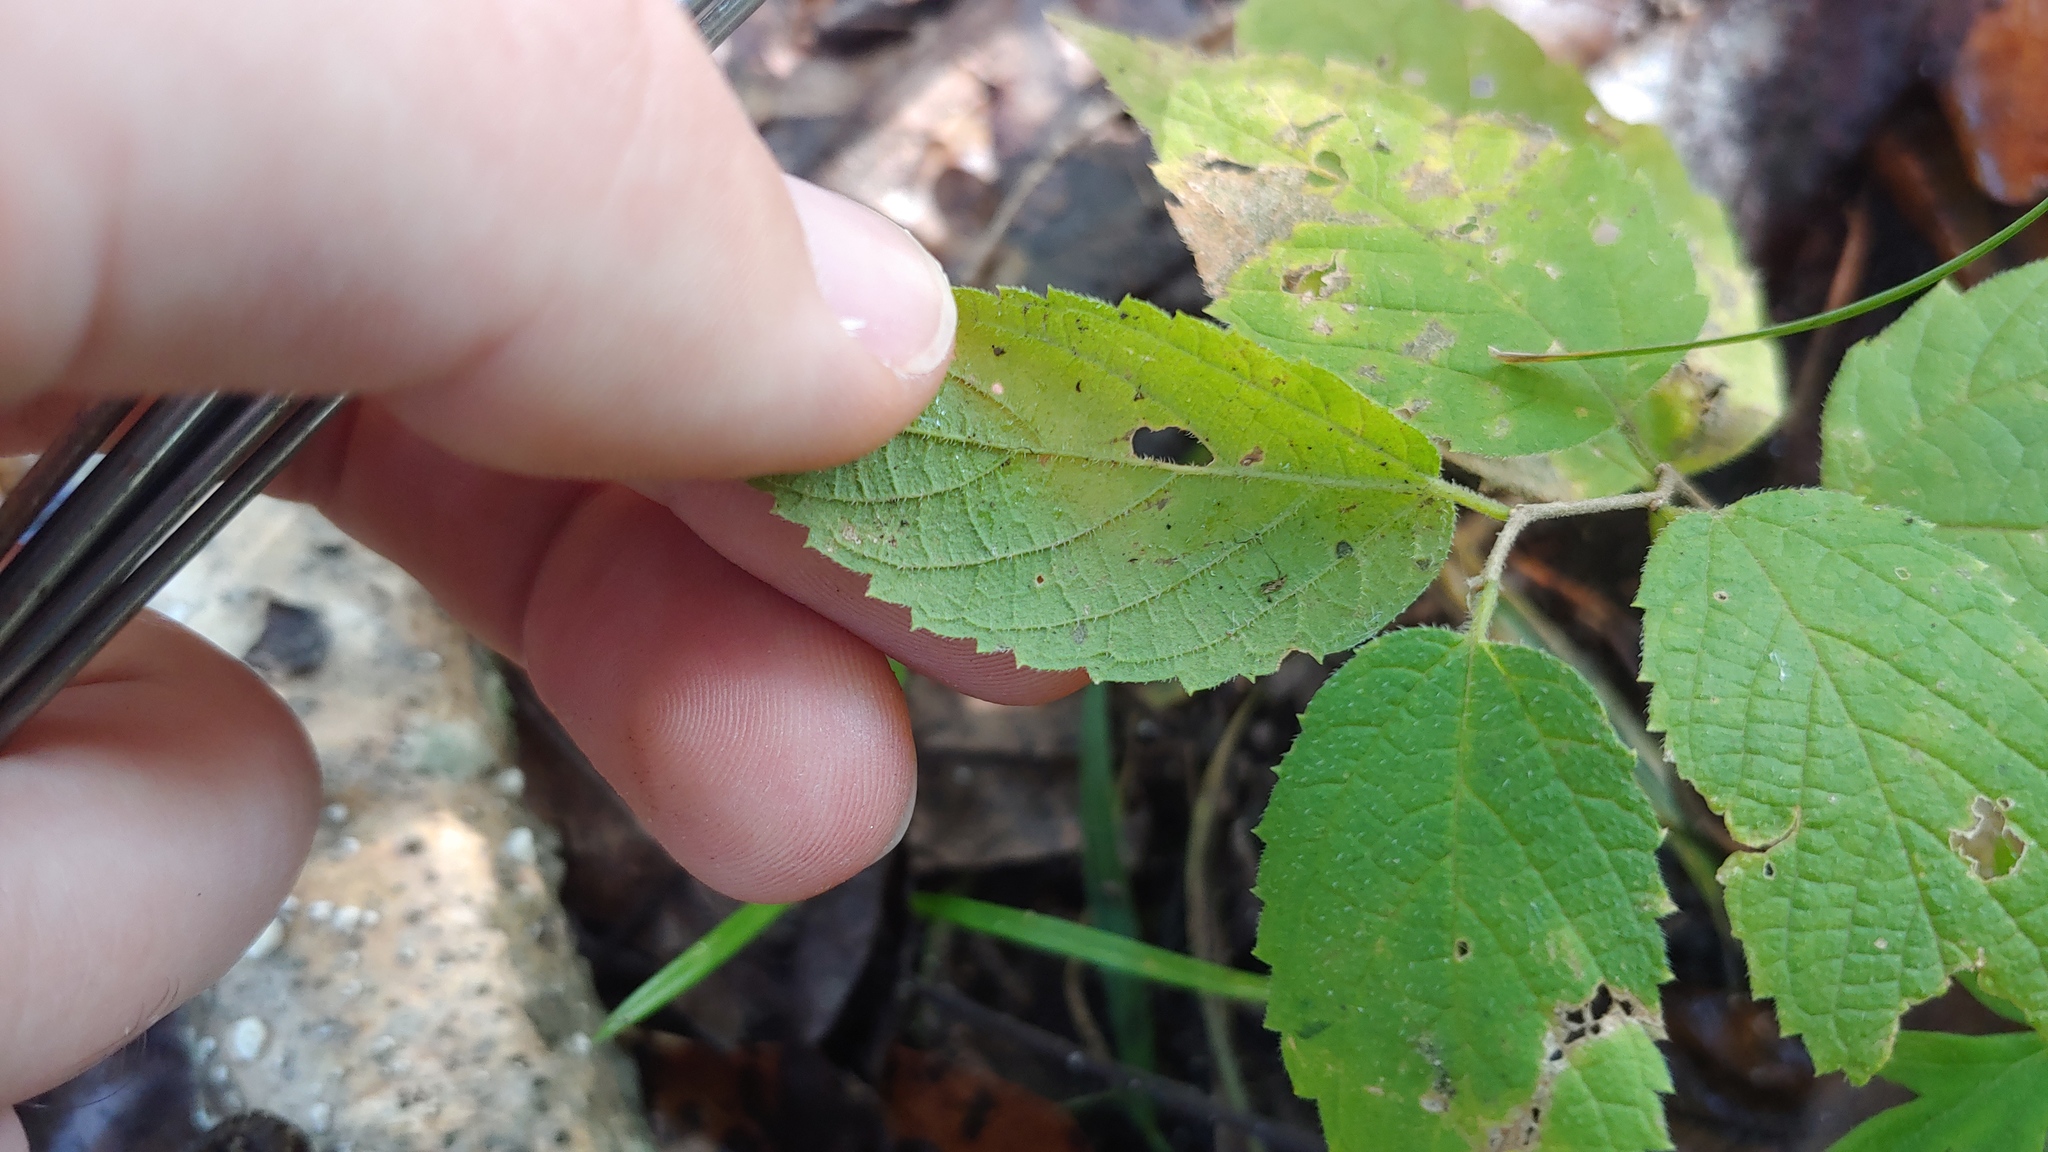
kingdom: Plantae
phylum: Tracheophyta
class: Magnoliopsida
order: Rosales
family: Cannabaceae
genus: Celtis
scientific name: Celtis occidentalis
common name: Common hackberry
